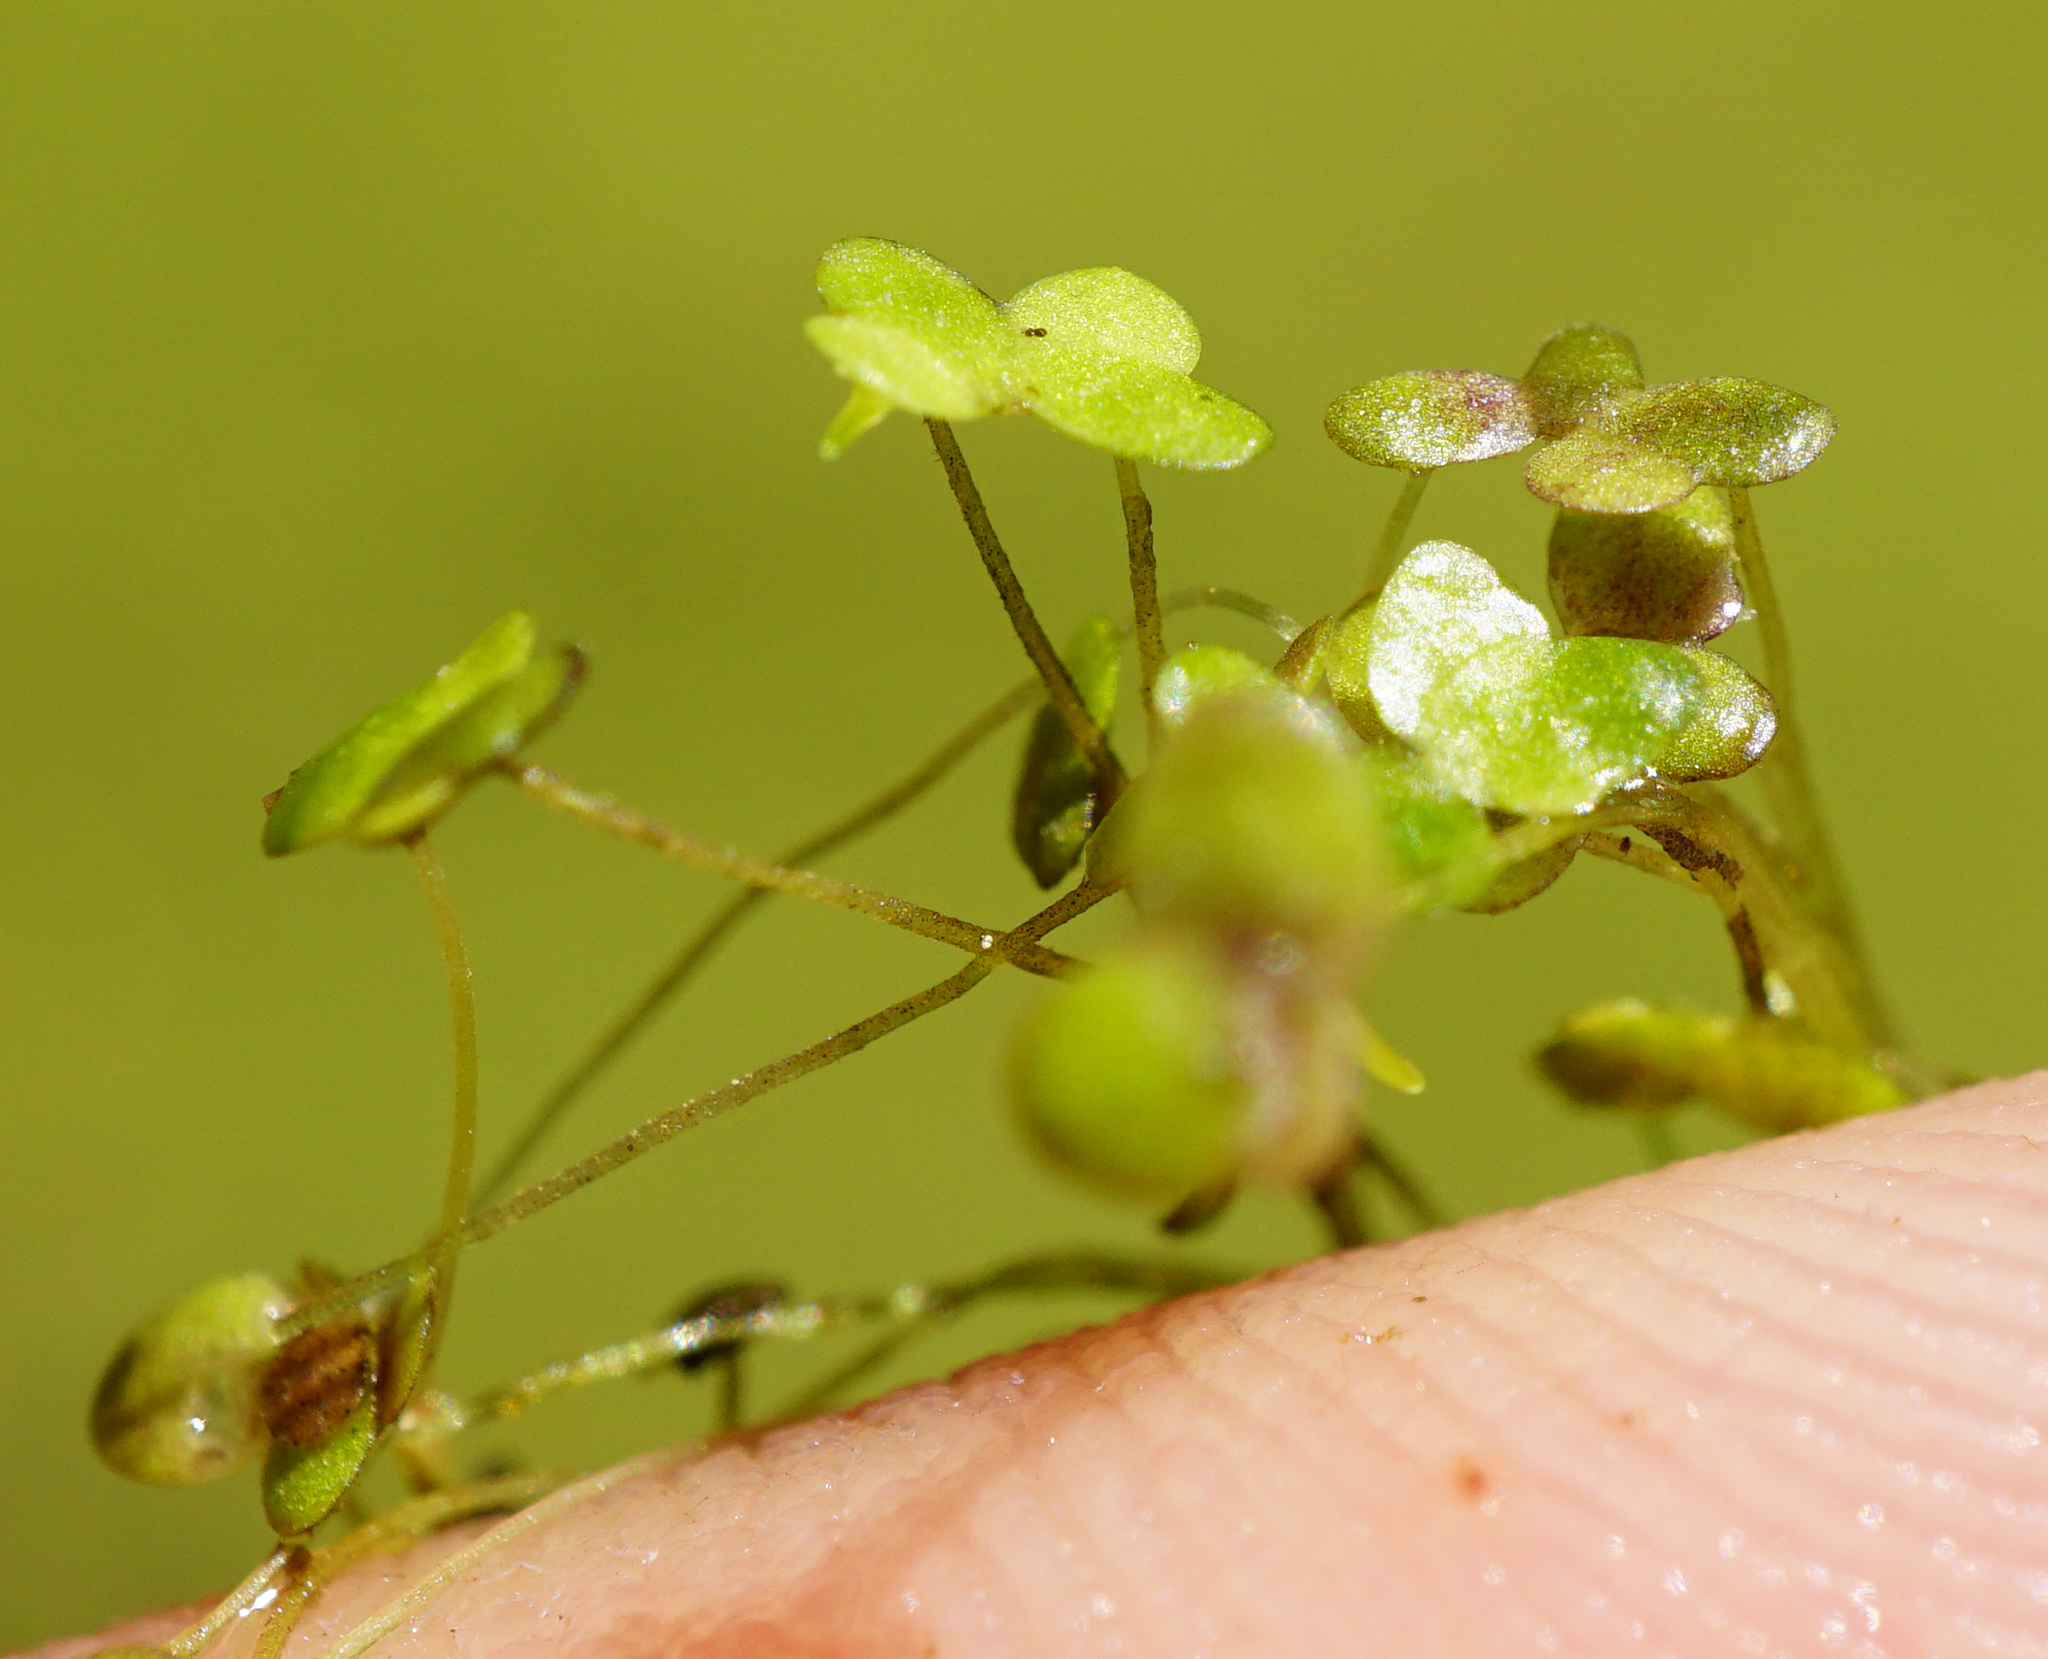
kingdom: Plantae
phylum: Tracheophyta
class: Liliopsida
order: Alismatales
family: Araceae
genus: Lemna
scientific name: Lemna minor
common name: Common duckweed
